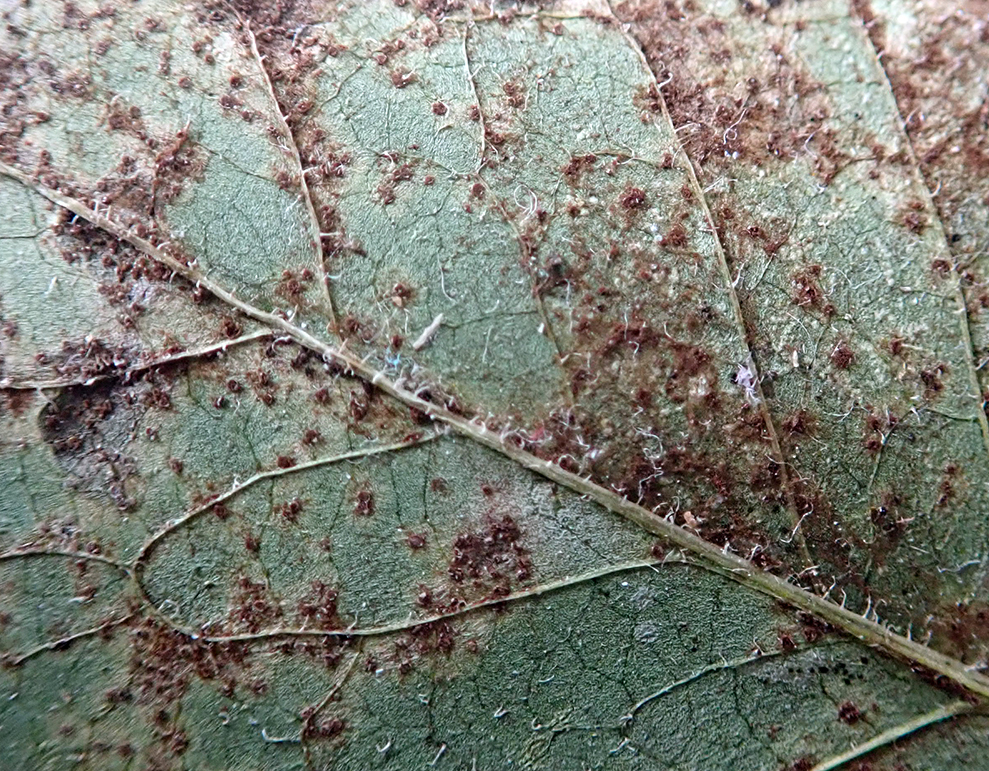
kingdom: Fungi
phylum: Basidiomycota
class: Pucciniomycetes
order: Pucciniales
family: Pucciniaceae
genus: Puccinia
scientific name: Puccinia lapsanae
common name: Nipplewort rust
